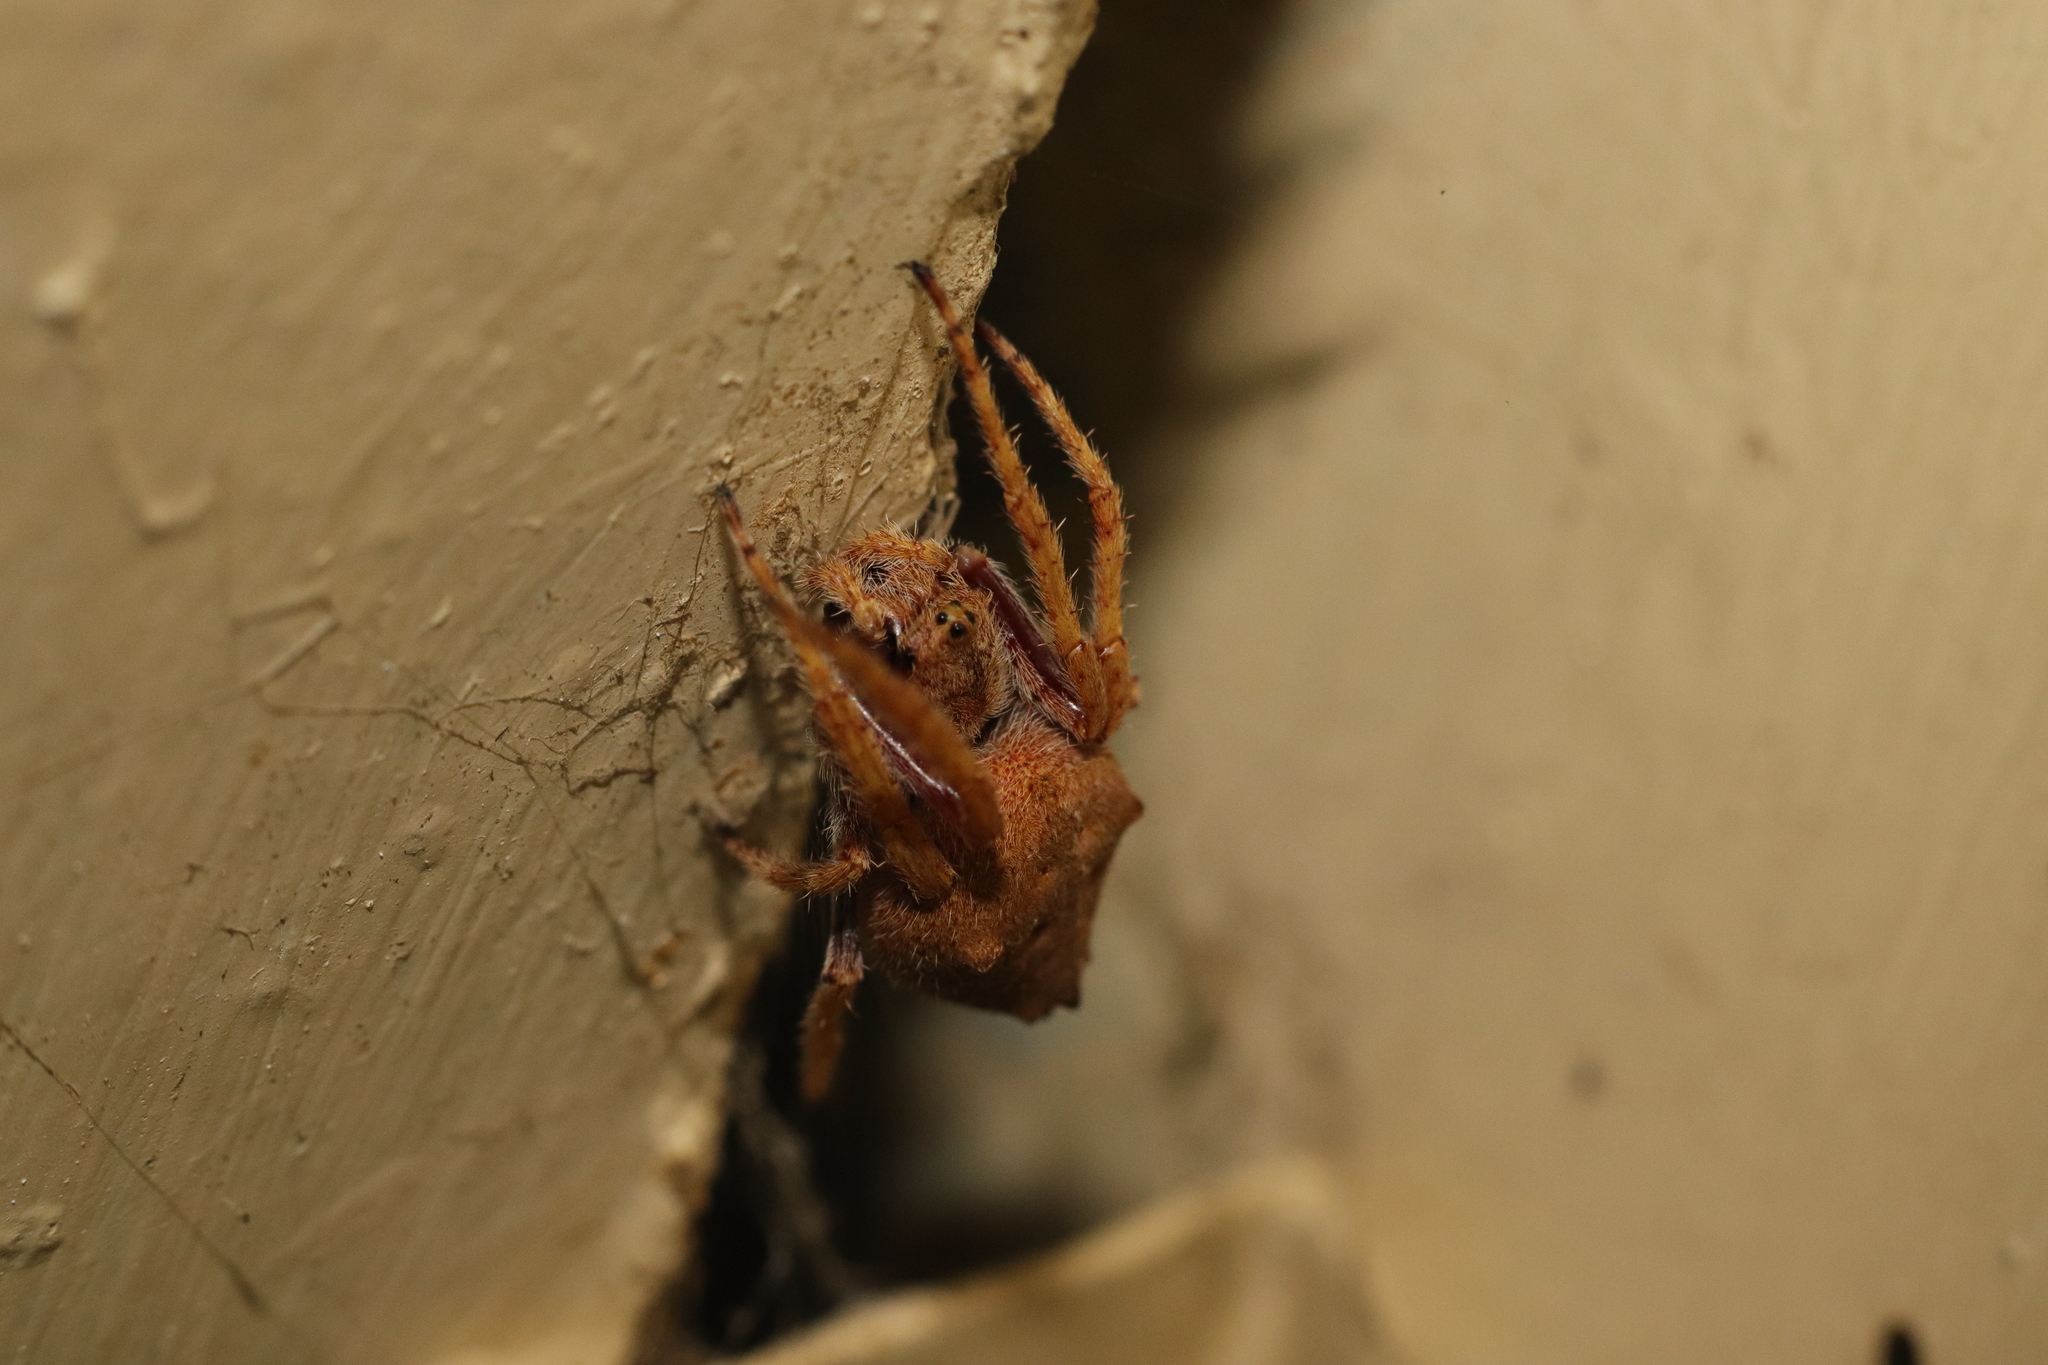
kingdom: Animalia
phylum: Arthropoda
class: Arachnida
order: Araneae
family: Araneidae
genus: Eriophora
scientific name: Eriophora pustulosa
